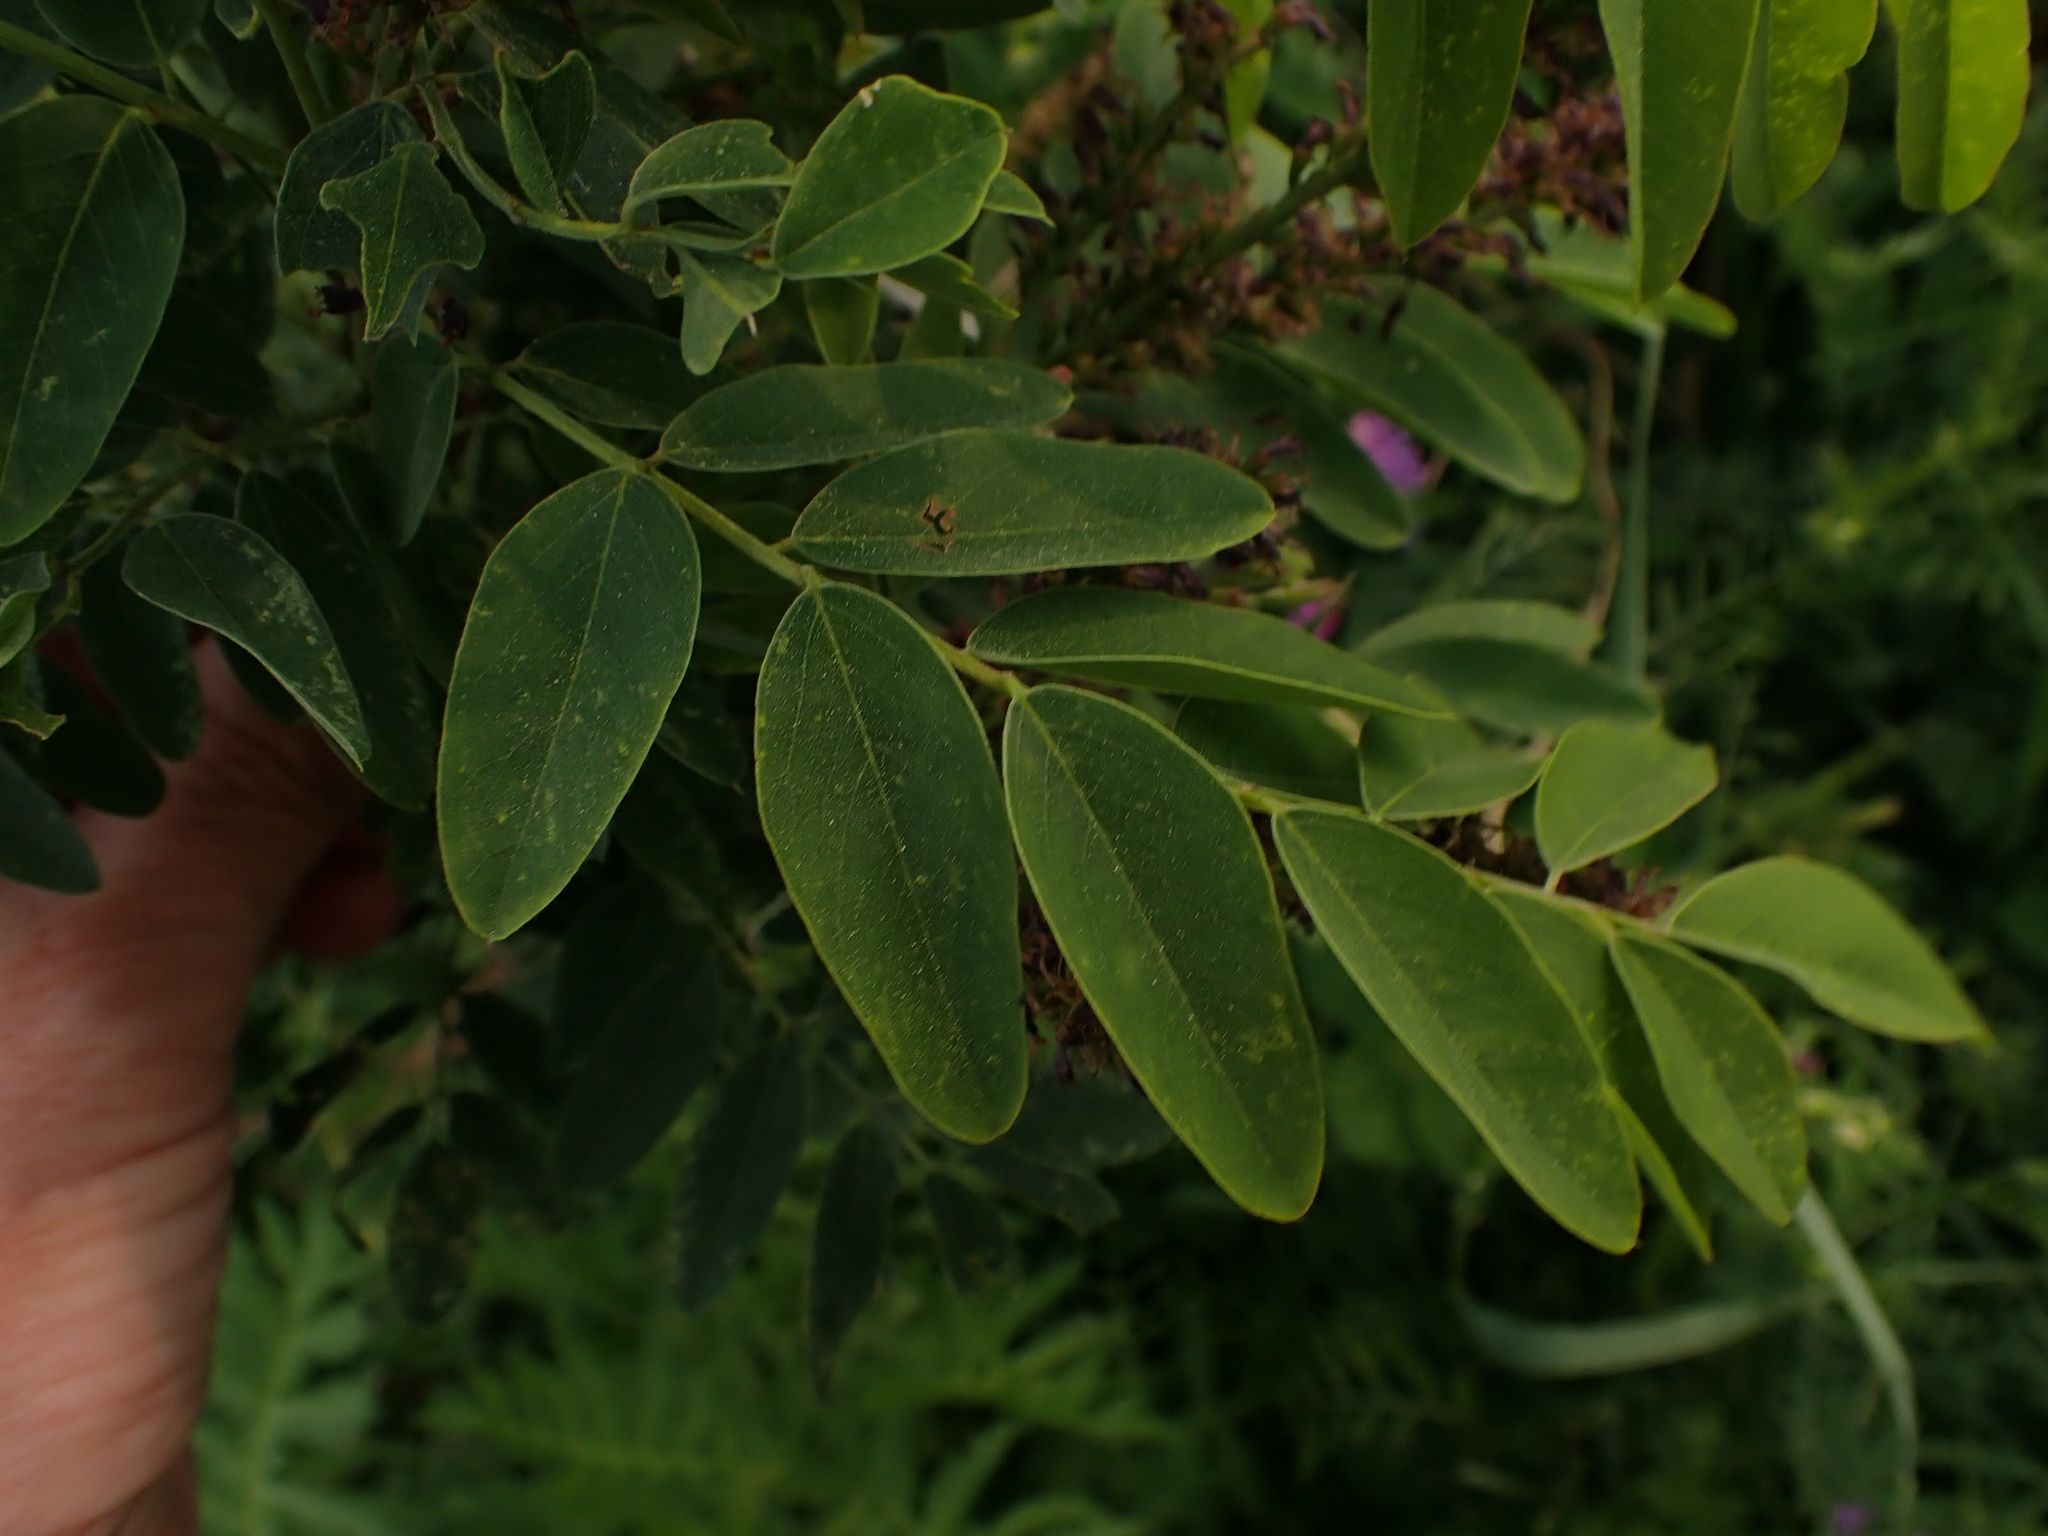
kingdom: Plantae
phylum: Tracheophyta
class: Magnoliopsida
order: Fabales
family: Fabaceae
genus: Amorpha
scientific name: Amorpha fruticosa
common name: False indigo
